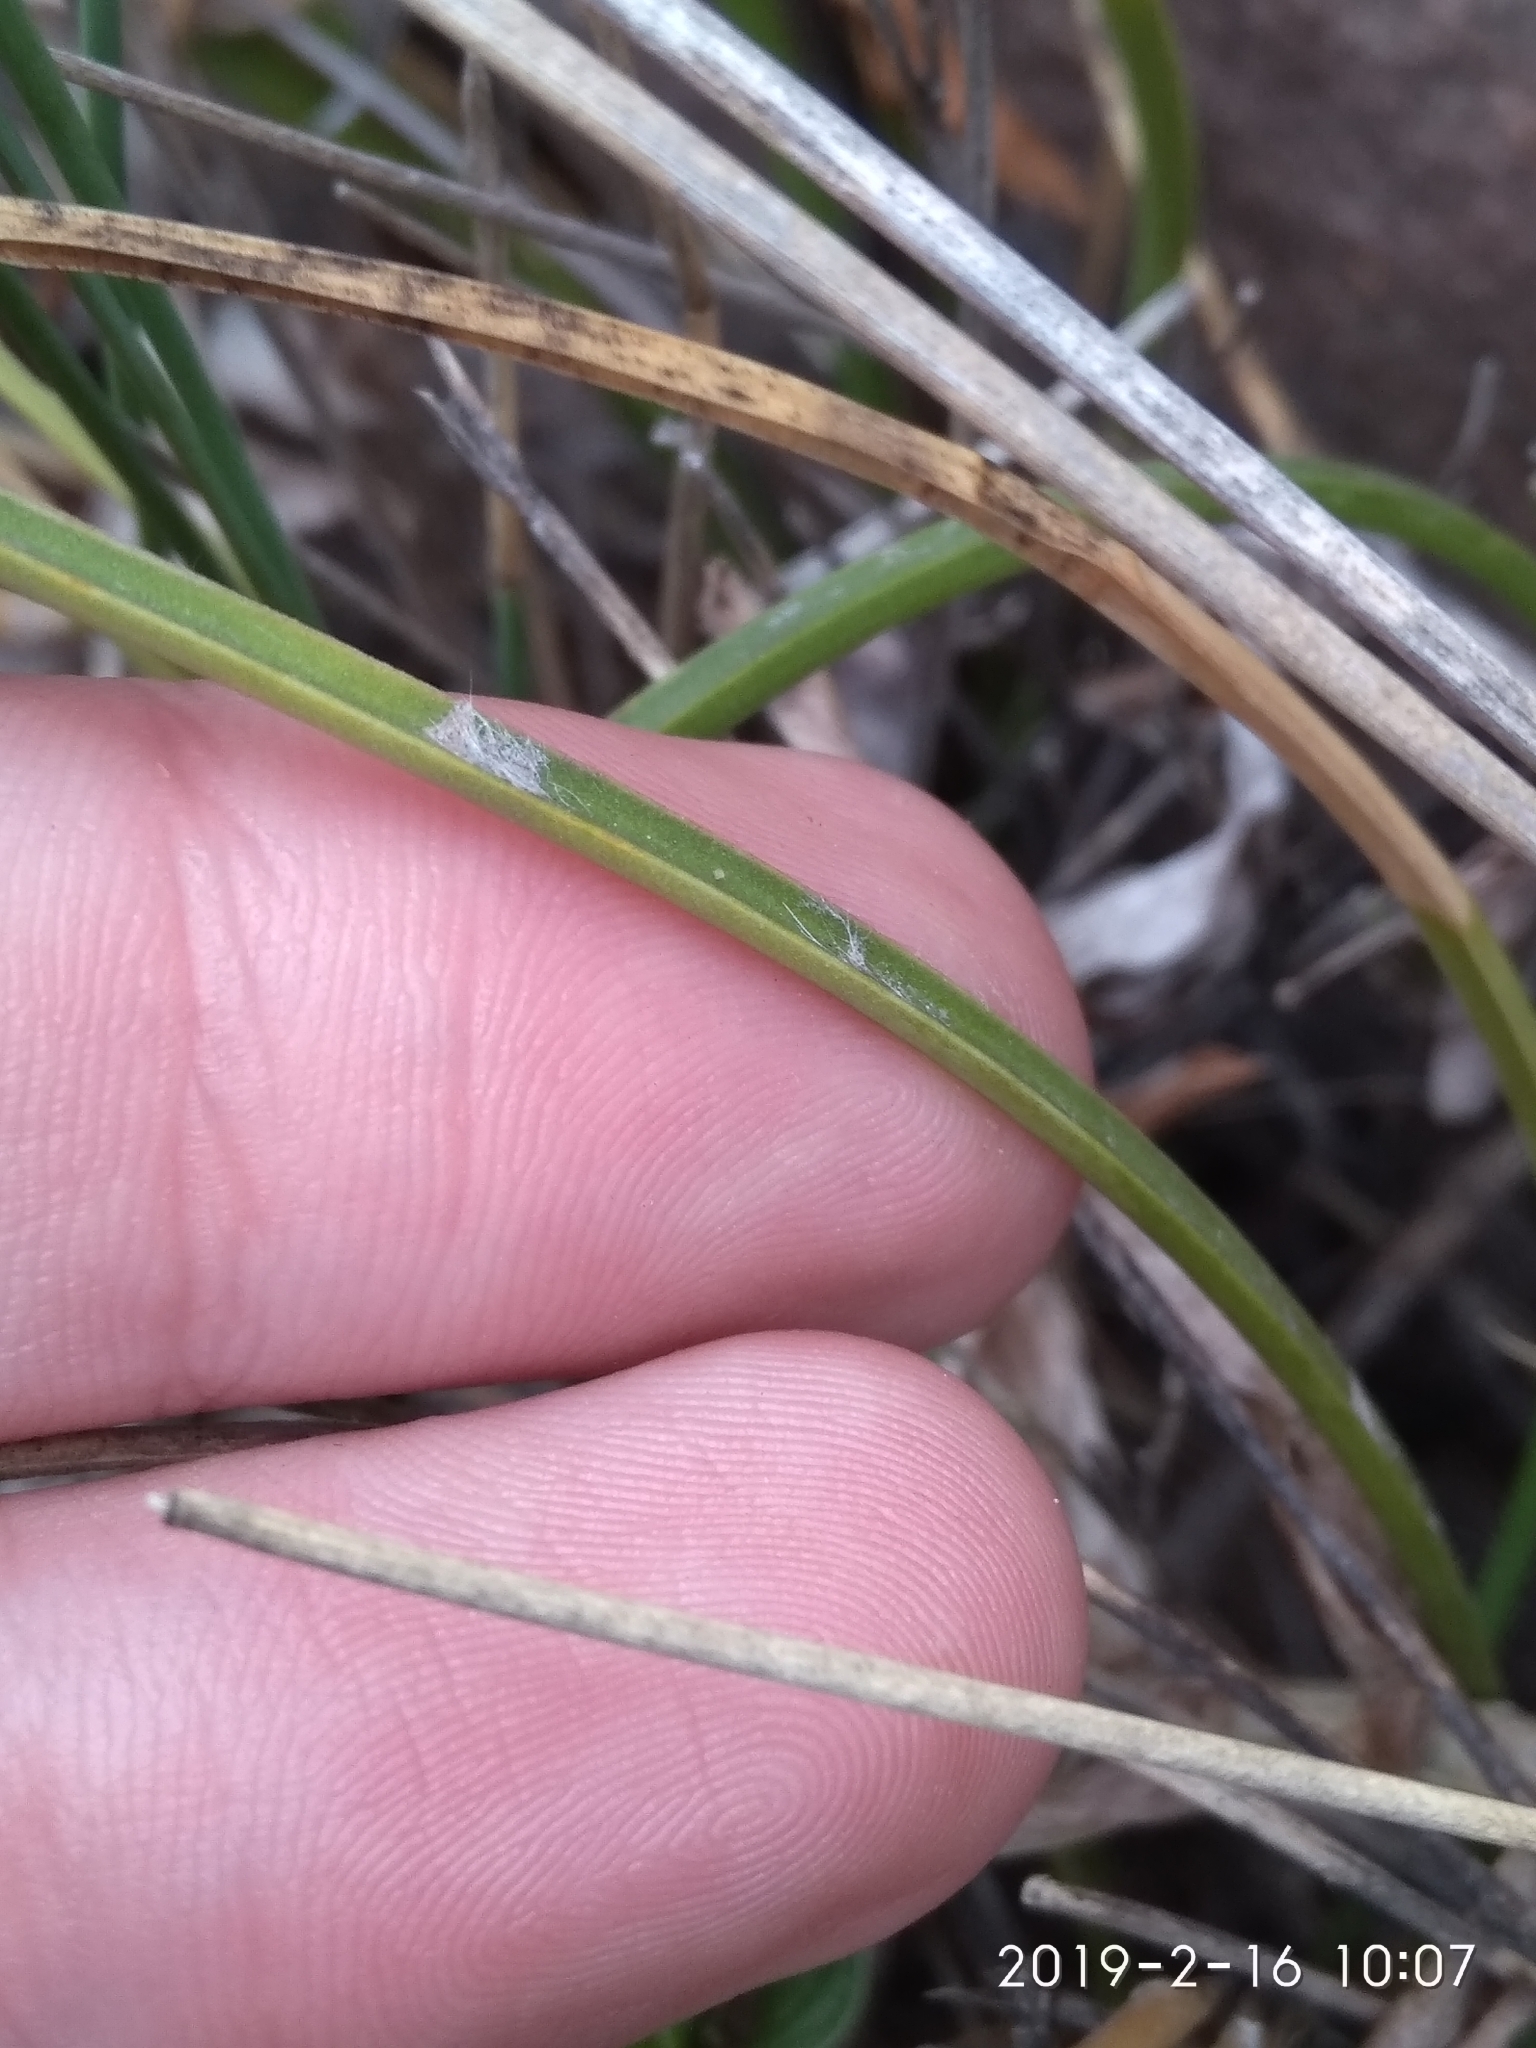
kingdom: Plantae
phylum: Tracheophyta
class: Liliopsida
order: Asparagales
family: Asparagaceae
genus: Drimia
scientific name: Drimia media
